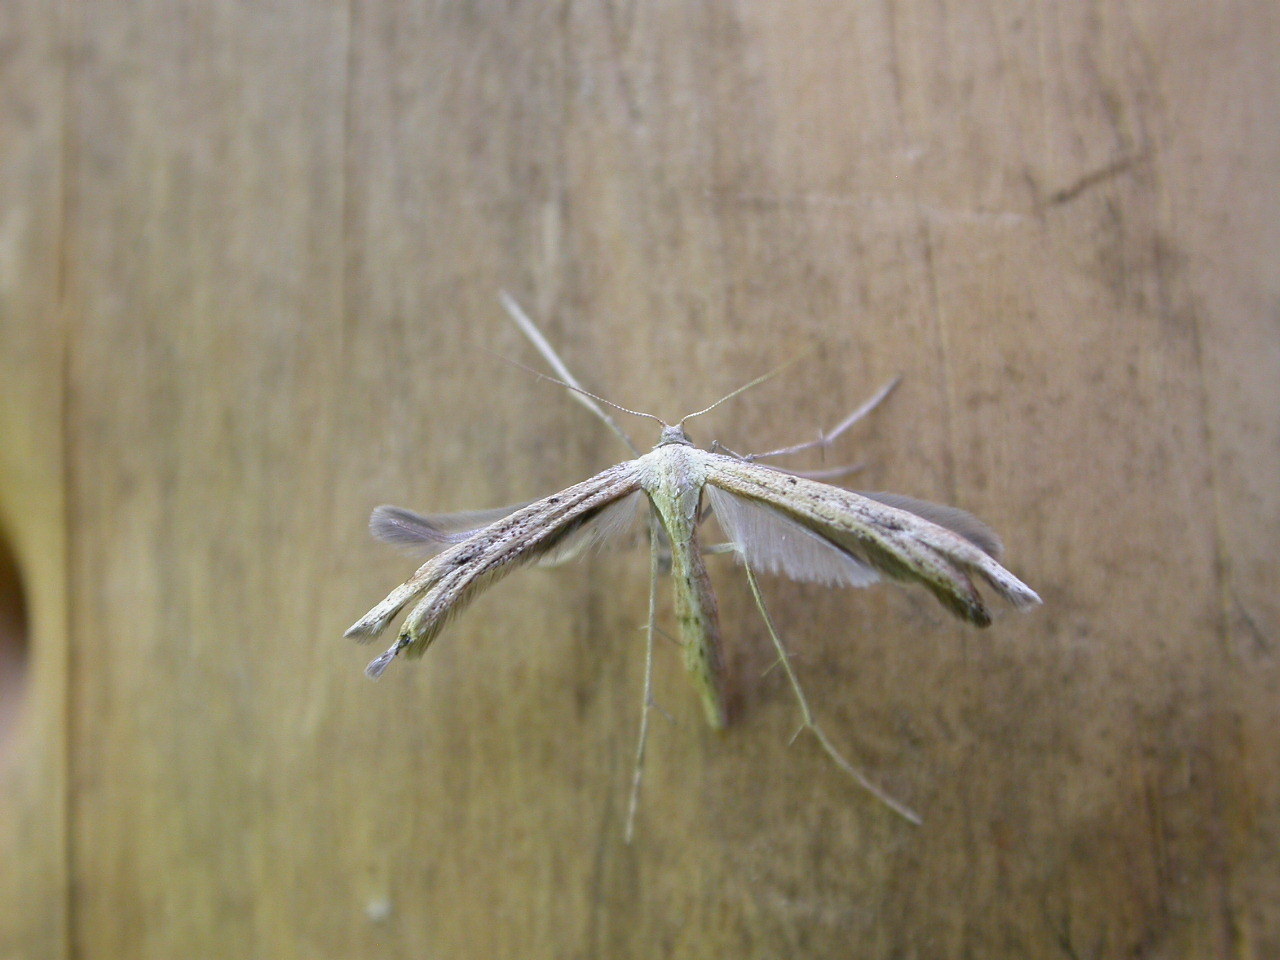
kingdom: Animalia
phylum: Arthropoda
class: Insecta
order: Lepidoptera
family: Pterophoridae
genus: Emmelina
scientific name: Emmelina monodactyla
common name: Common plume
